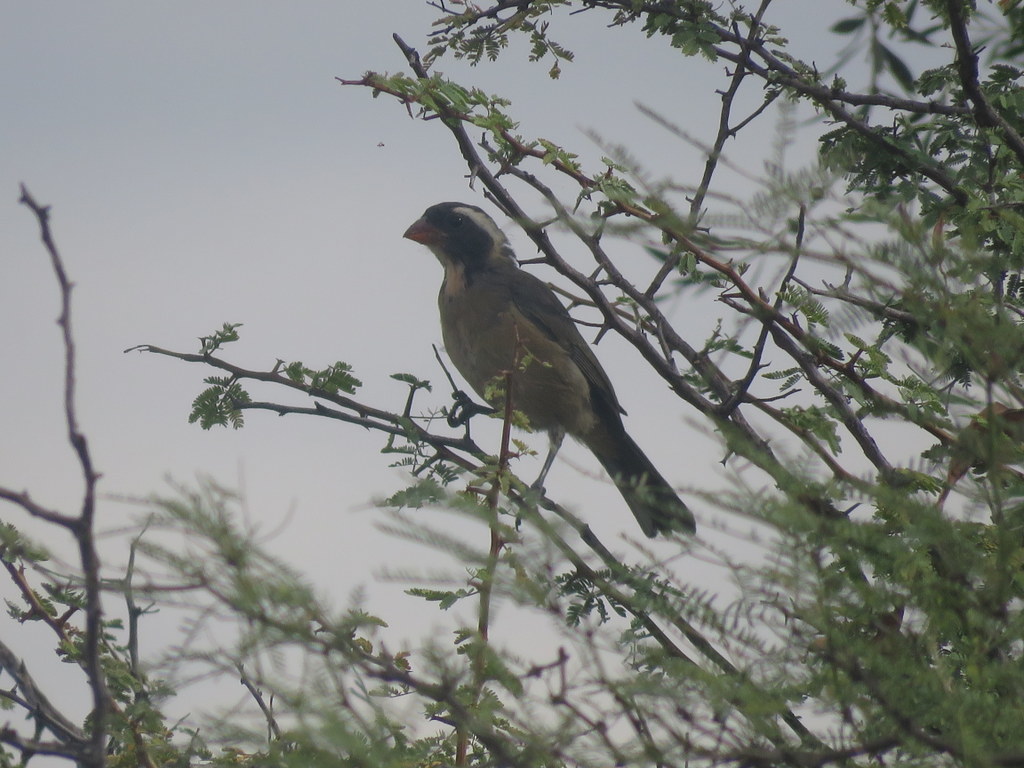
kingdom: Animalia
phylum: Chordata
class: Aves
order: Passeriformes
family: Thraupidae
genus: Saltator
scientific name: Saltator aurantiirostris
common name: Golden-billed saltator
